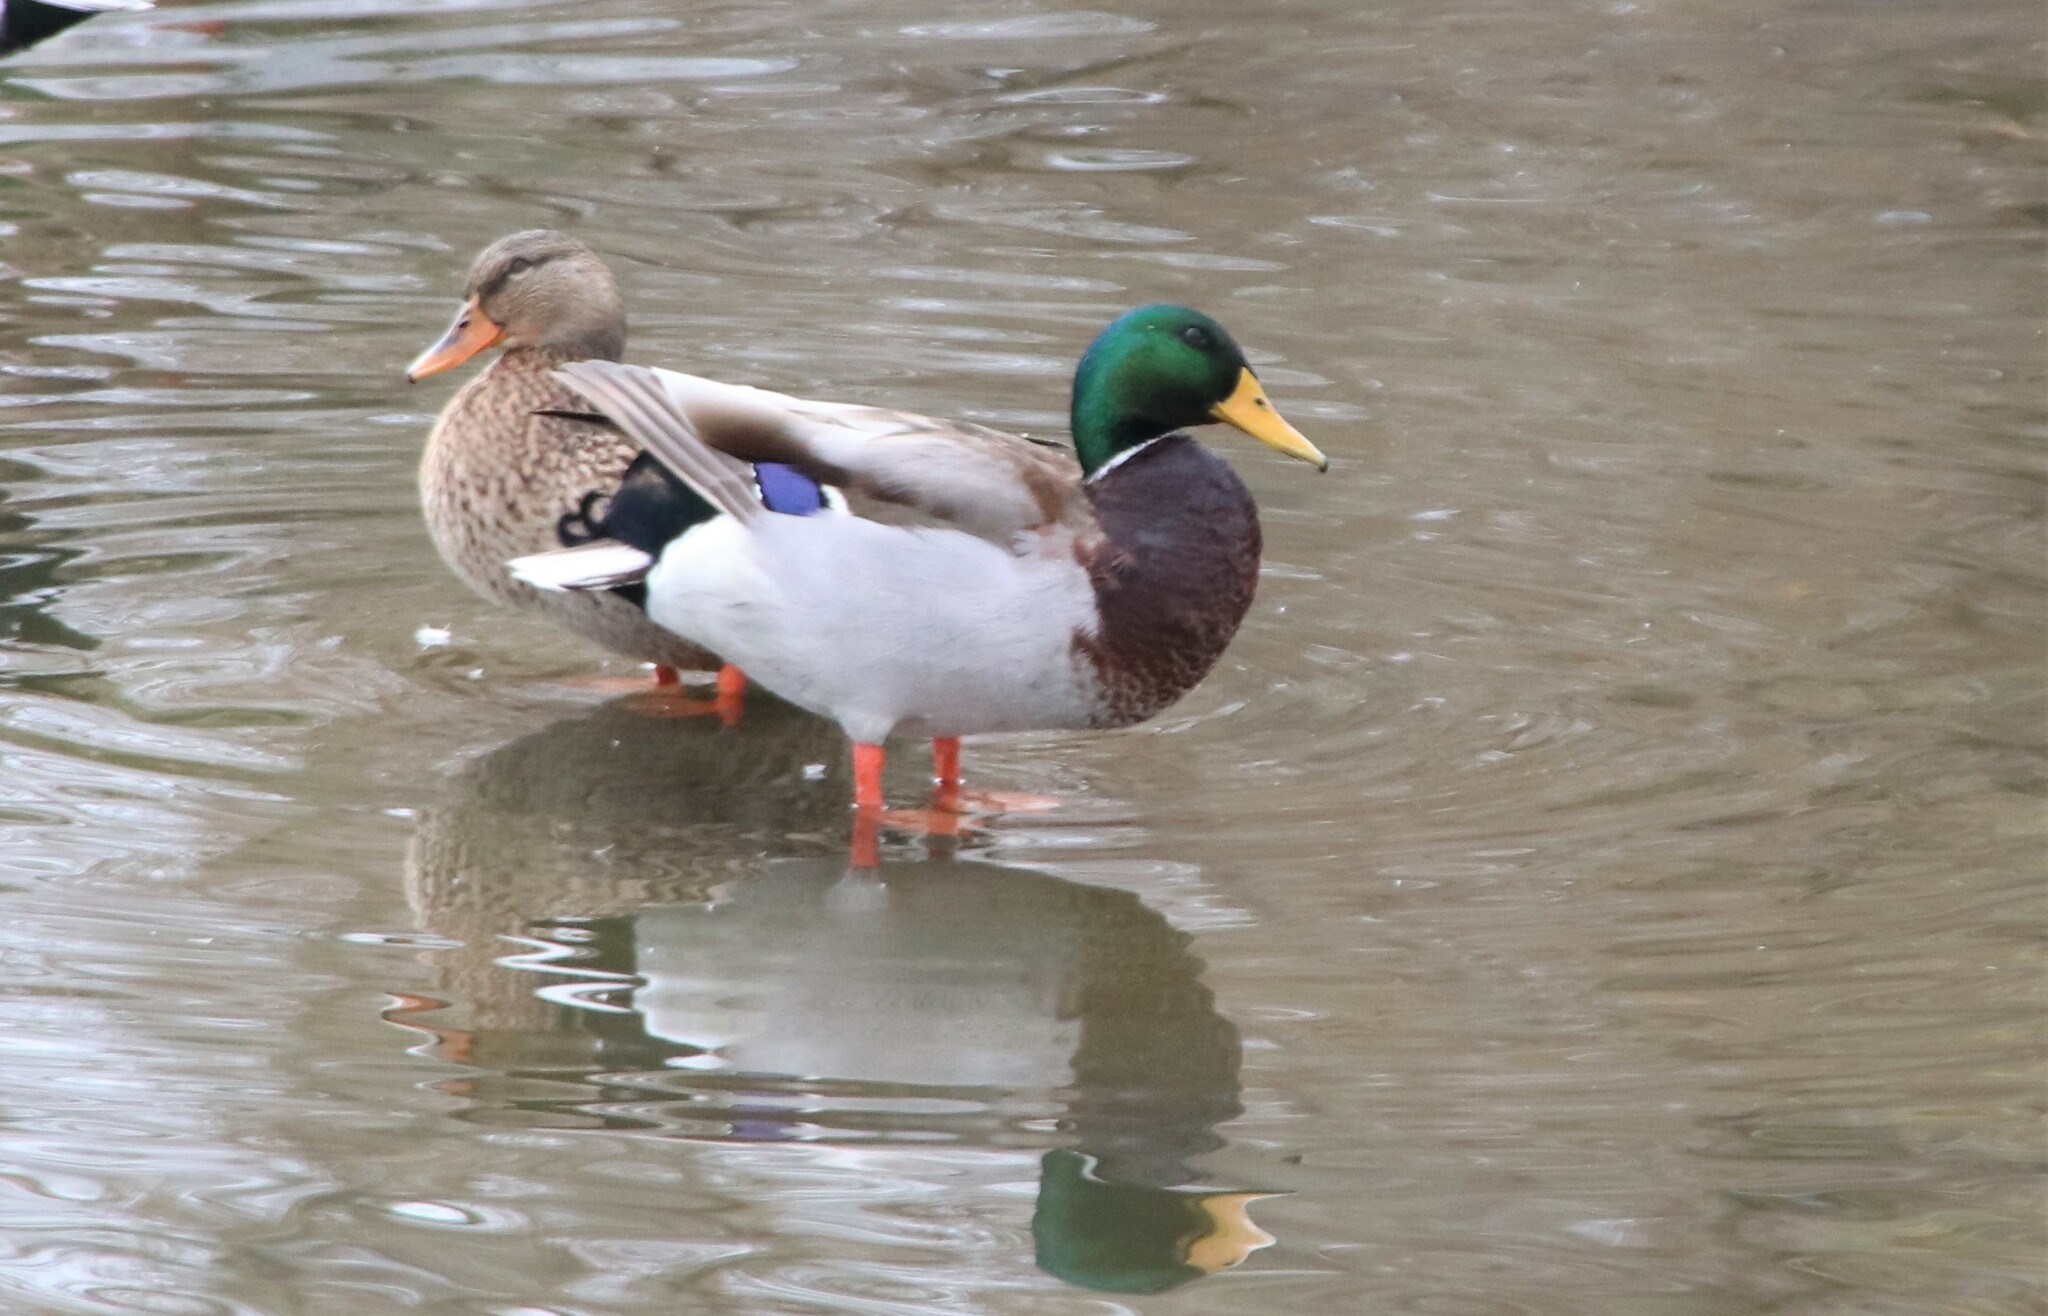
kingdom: Animalia
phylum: Chordata
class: Aves
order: Anseriformes
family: Anatidae
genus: Anas
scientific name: Anas platyrhynchos
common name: Mallard
